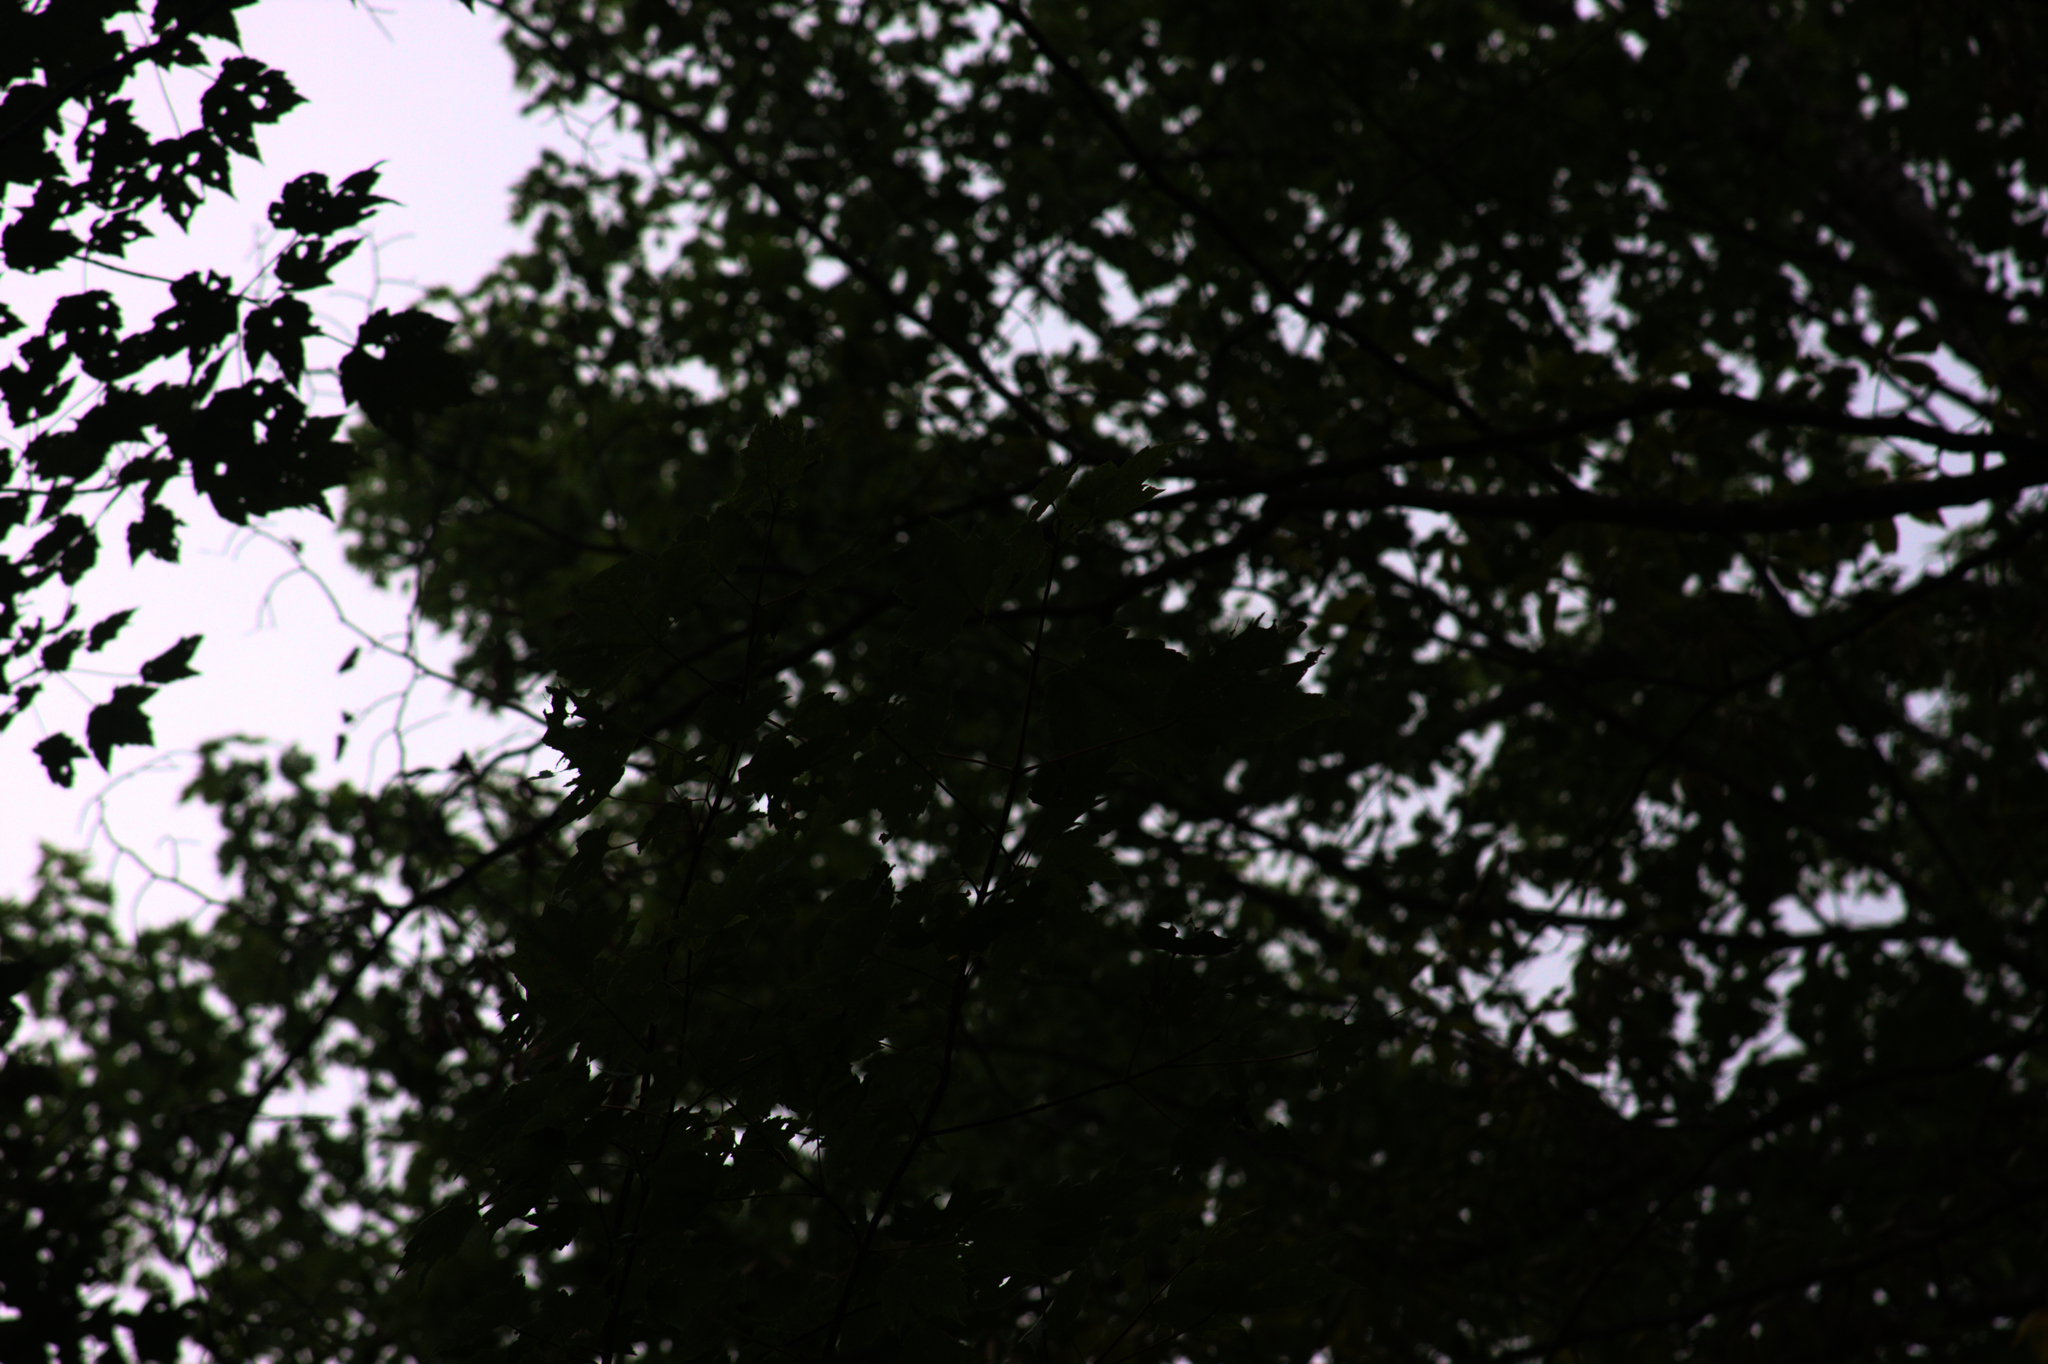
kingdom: Plantae
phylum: Tracheophyta
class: Magnoliopsida
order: Sapindales
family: Sapindaceae
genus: Acer
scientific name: Acer rubrum
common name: Red maple
